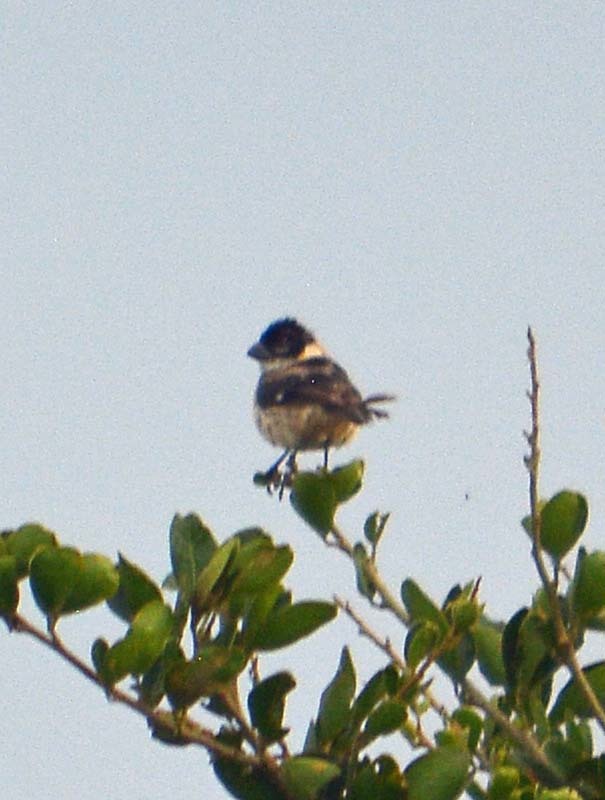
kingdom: Animalia
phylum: Chordata
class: Aves
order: Passeriformes
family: Thraupidae
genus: Sporophila
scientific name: Sporophila morelleti
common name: Morelet's seedeater
